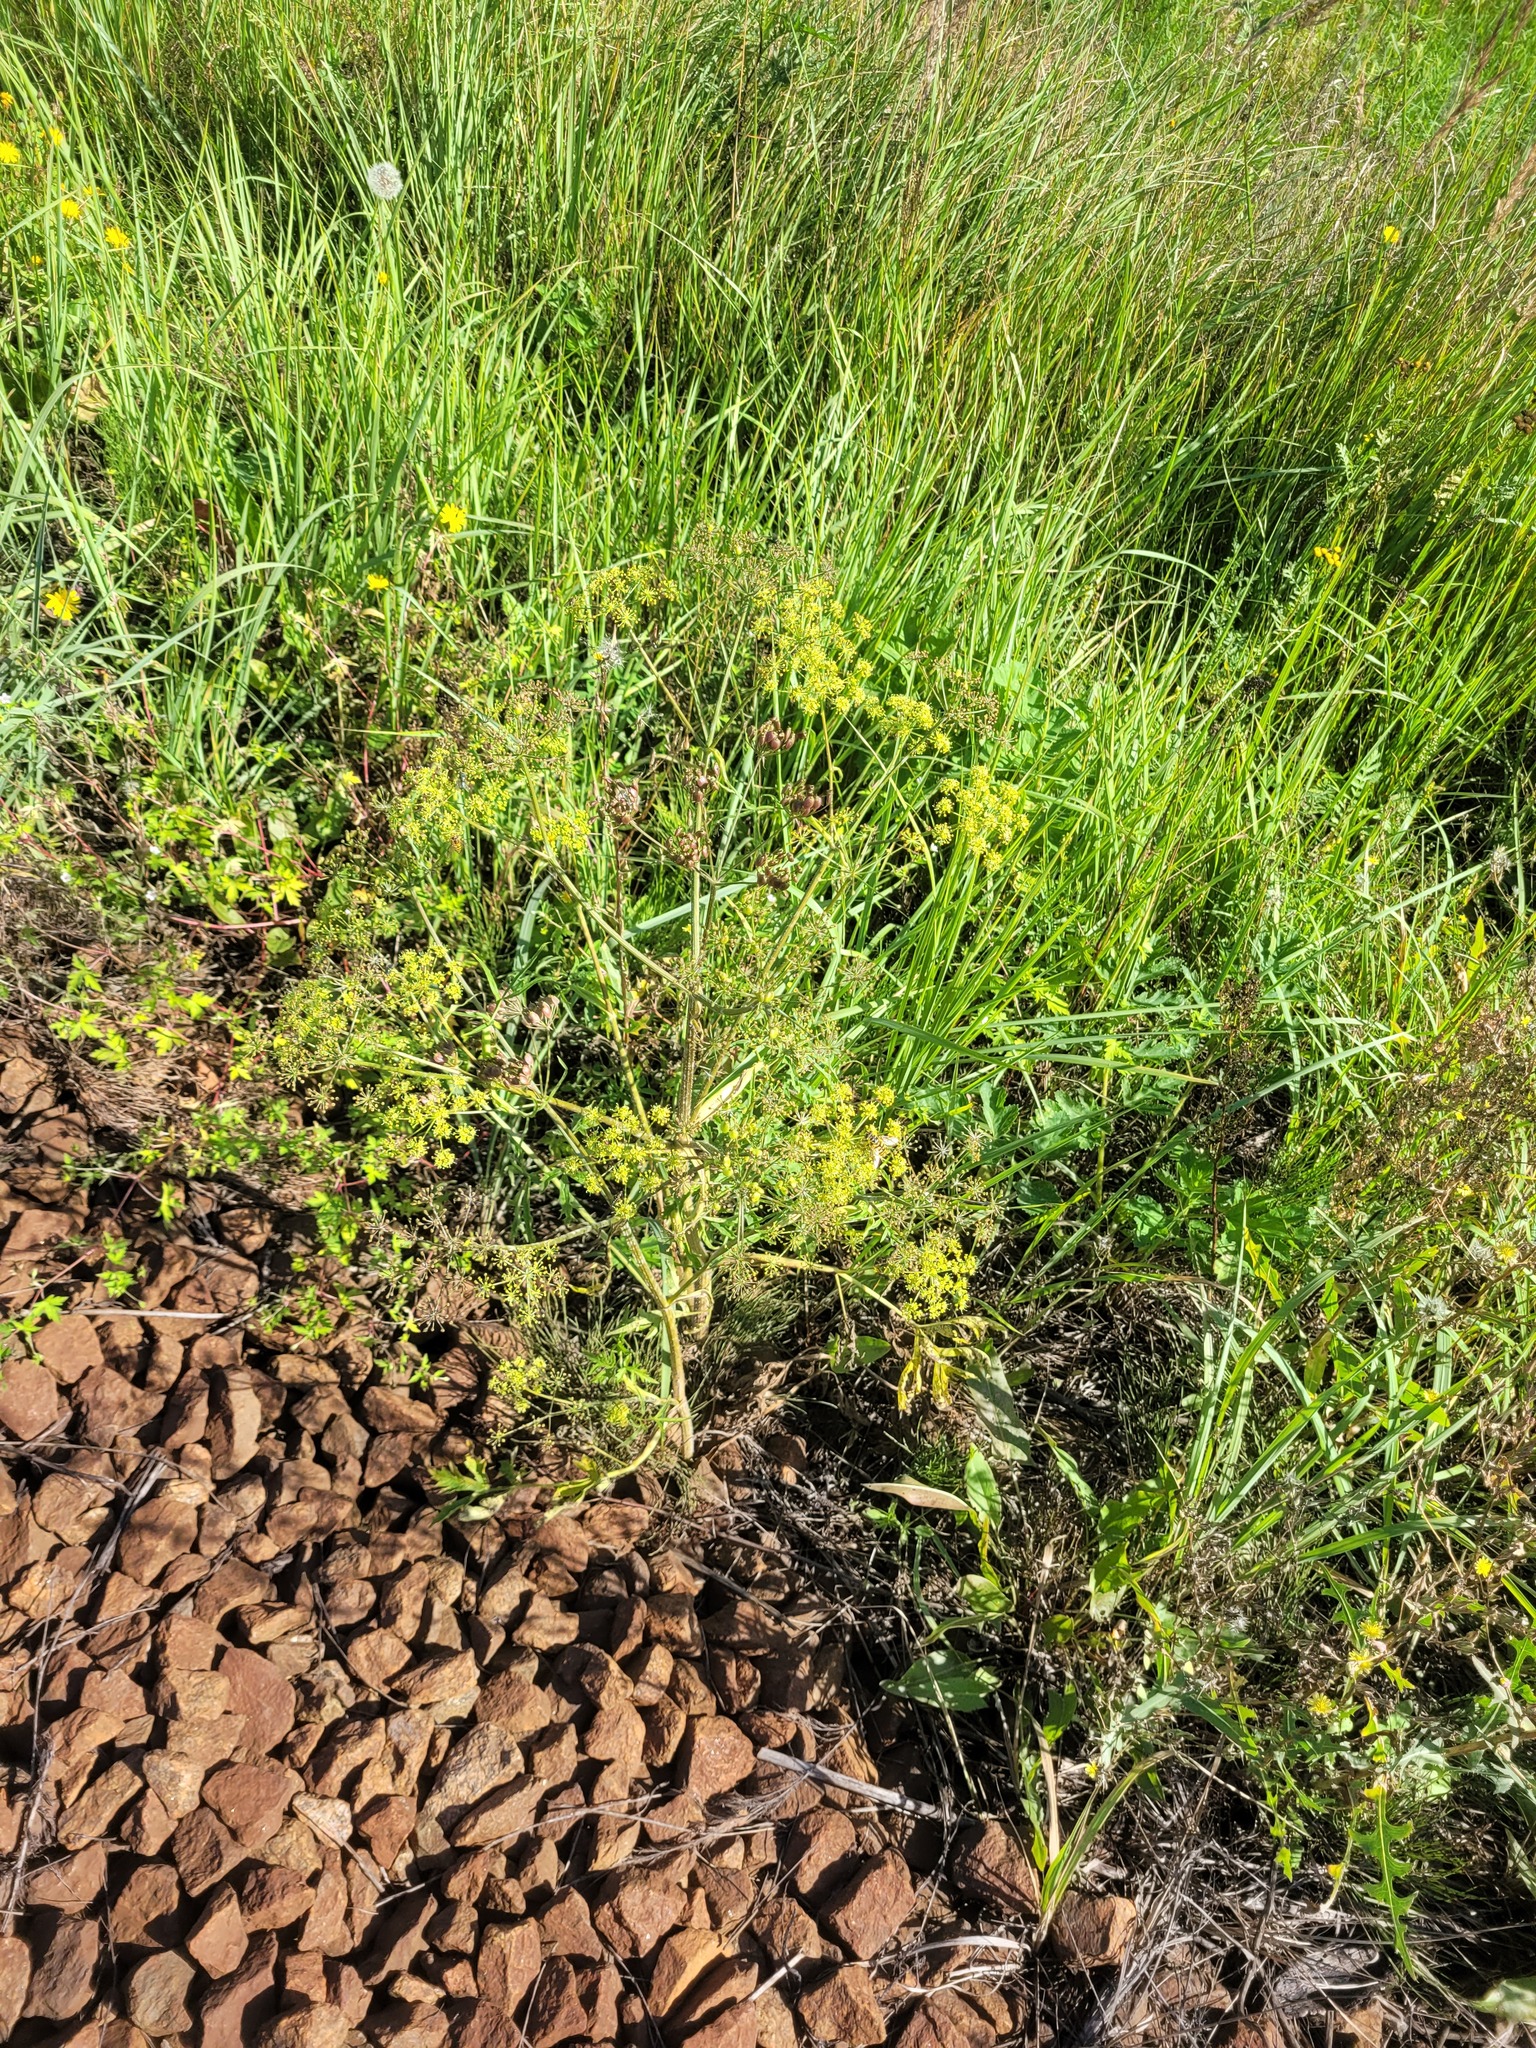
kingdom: Plantae
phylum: Tracheophyta
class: Magnoliopsida
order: Apiales
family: Apiaceae
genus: Heracleum
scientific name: Heracleum sphondylium
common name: Hogweed
